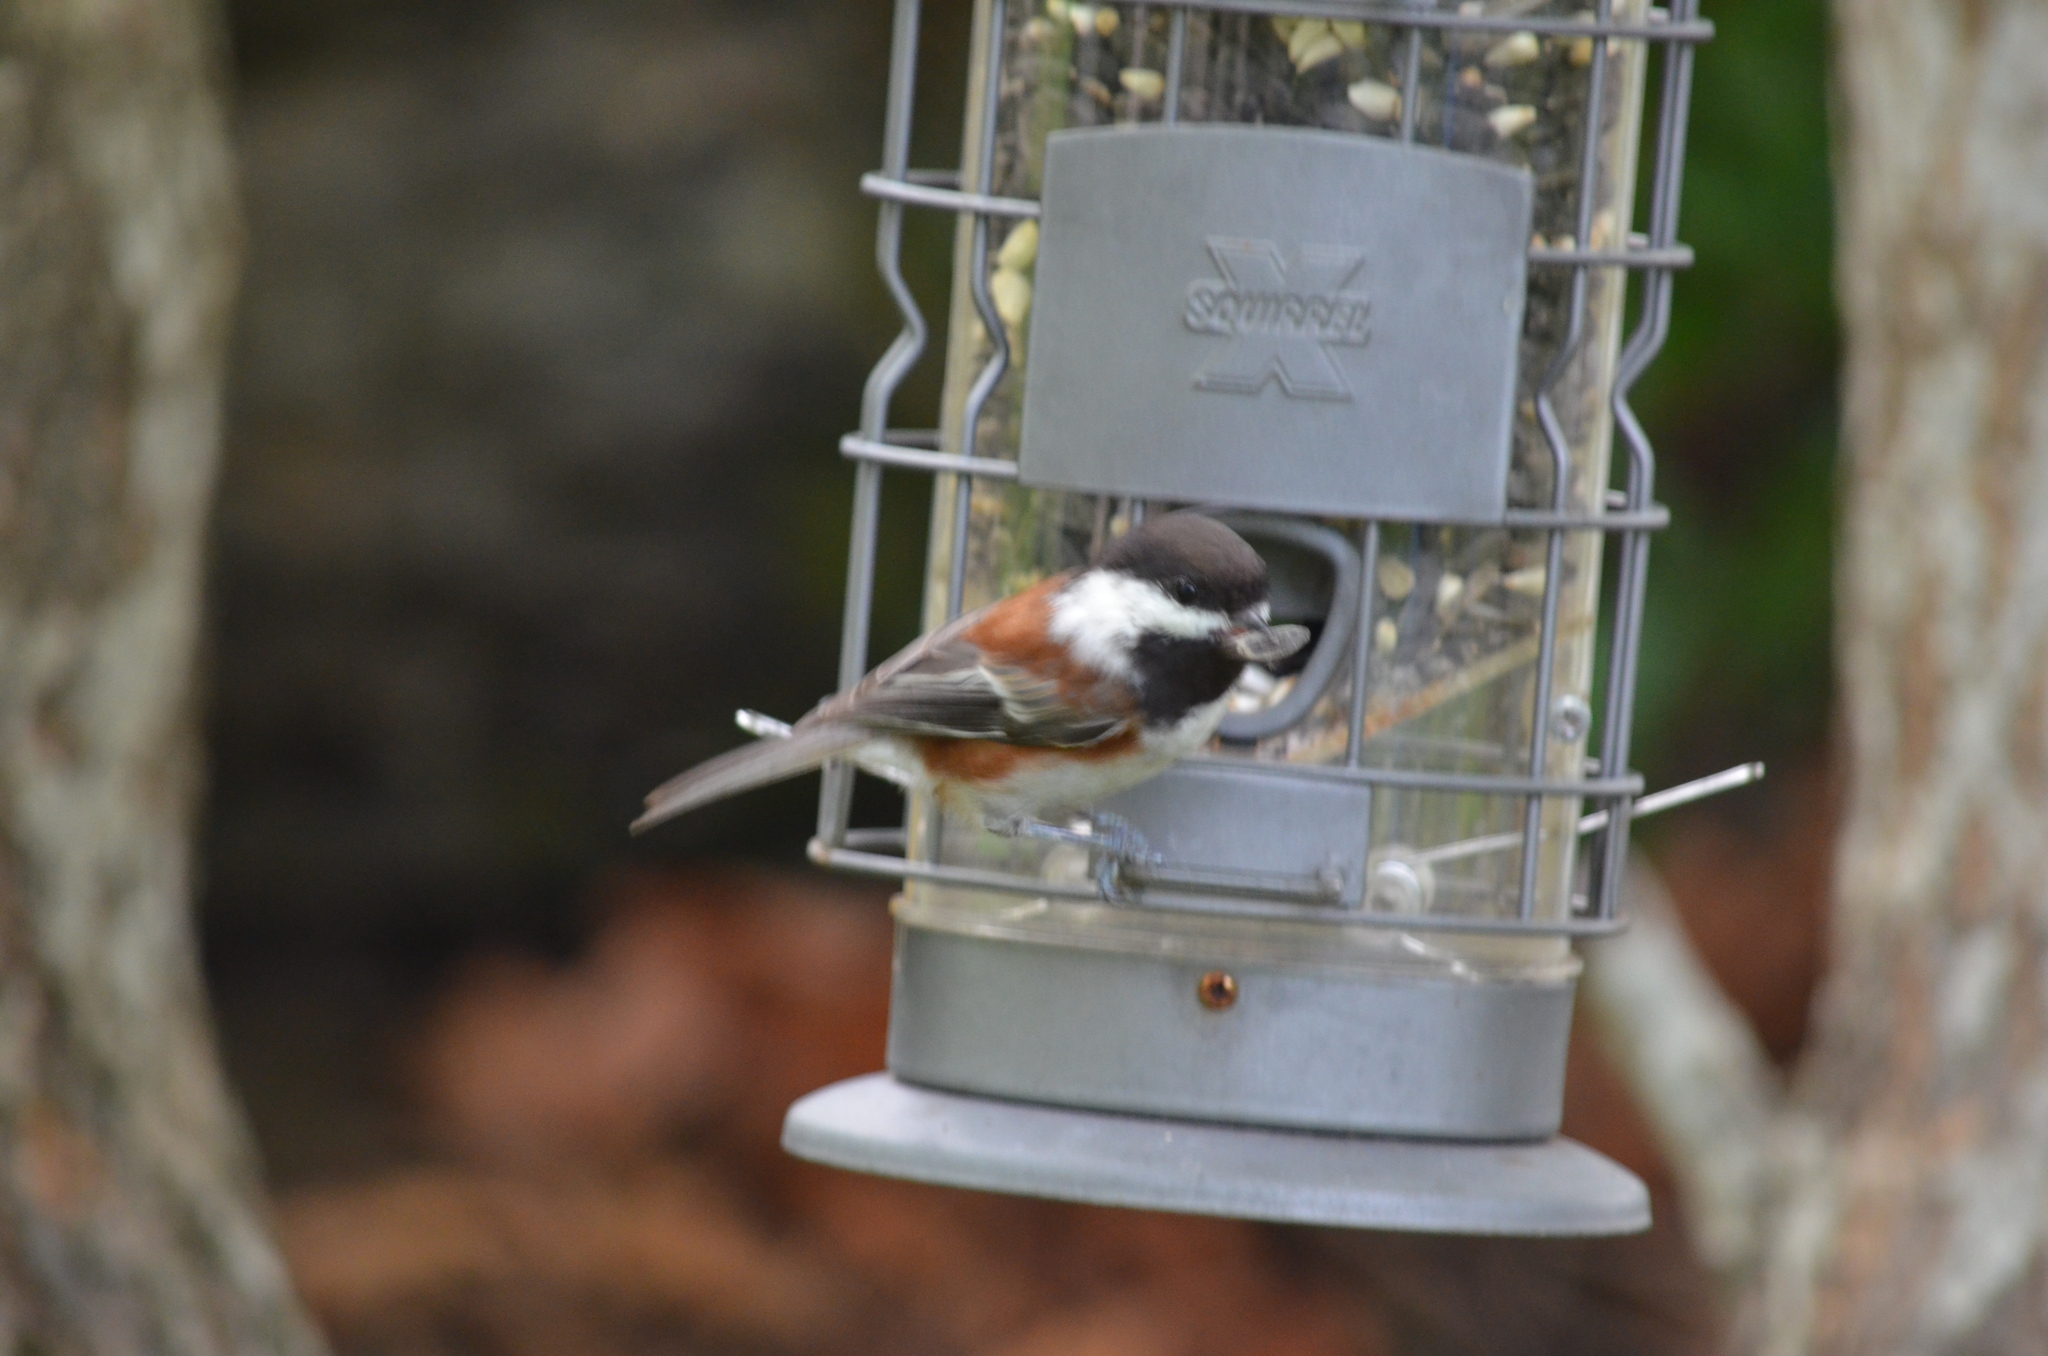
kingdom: Animalia
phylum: Chordata
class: Aves
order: Passeriformes
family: Paridae
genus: Poecile
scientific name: Poecile rufescens
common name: Chestnut-backed chickadee
